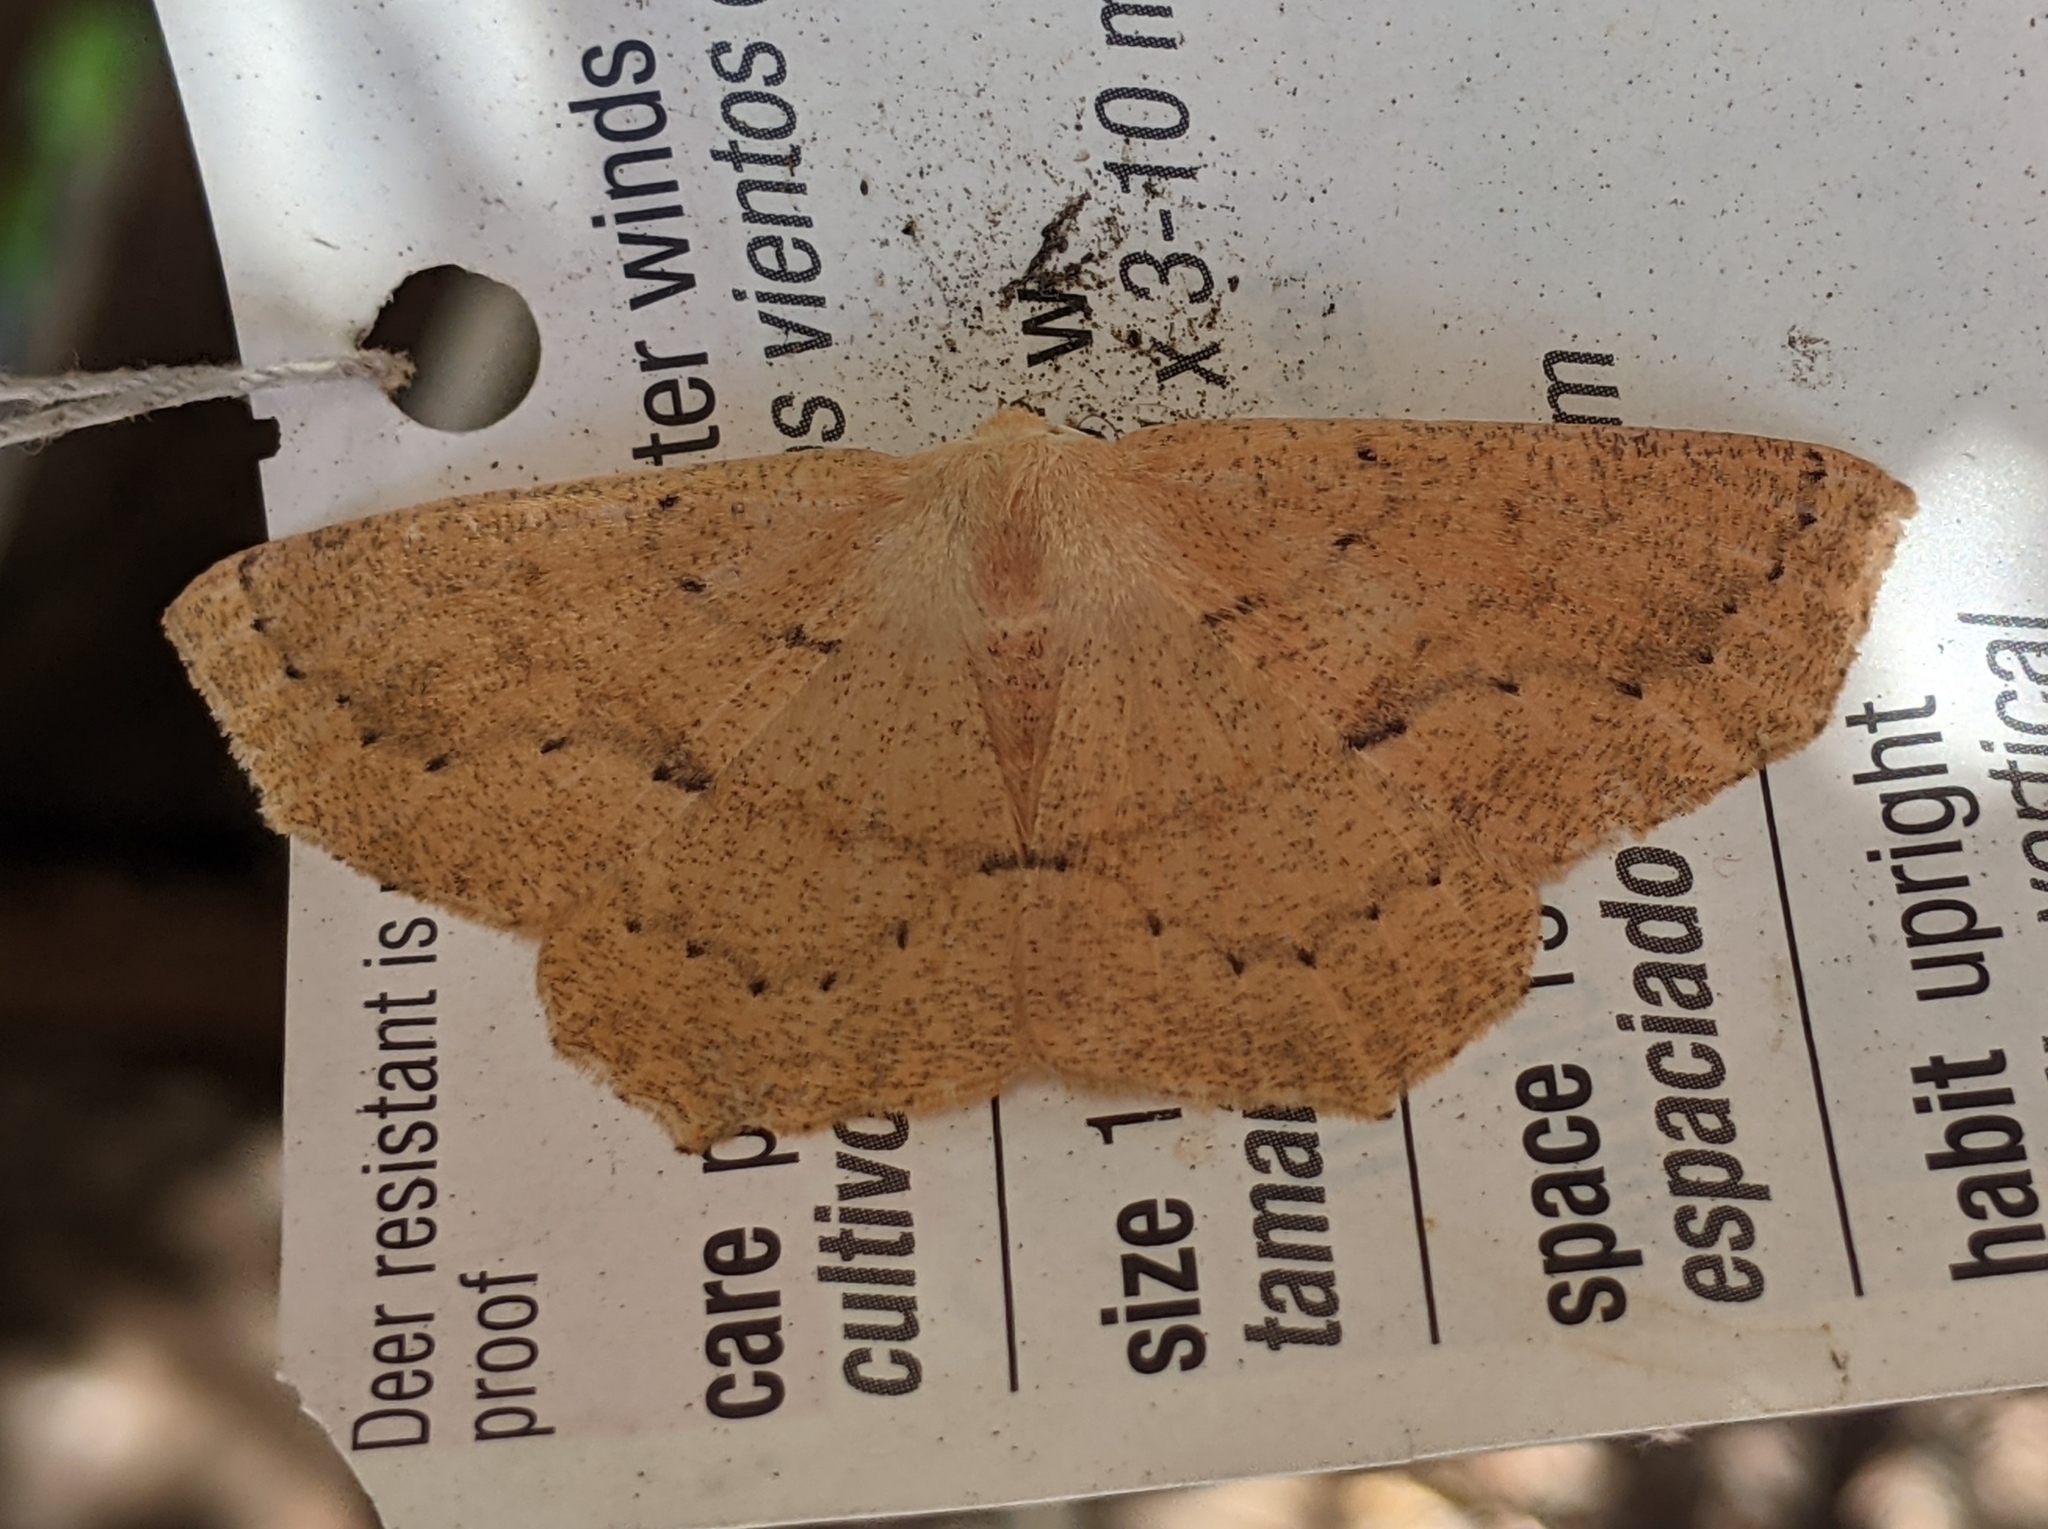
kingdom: Animalia
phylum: Arthropoda
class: Insecta
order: Lepidoptera
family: Geometridae
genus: Sabulodes
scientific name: Sabulodes aegrotata
